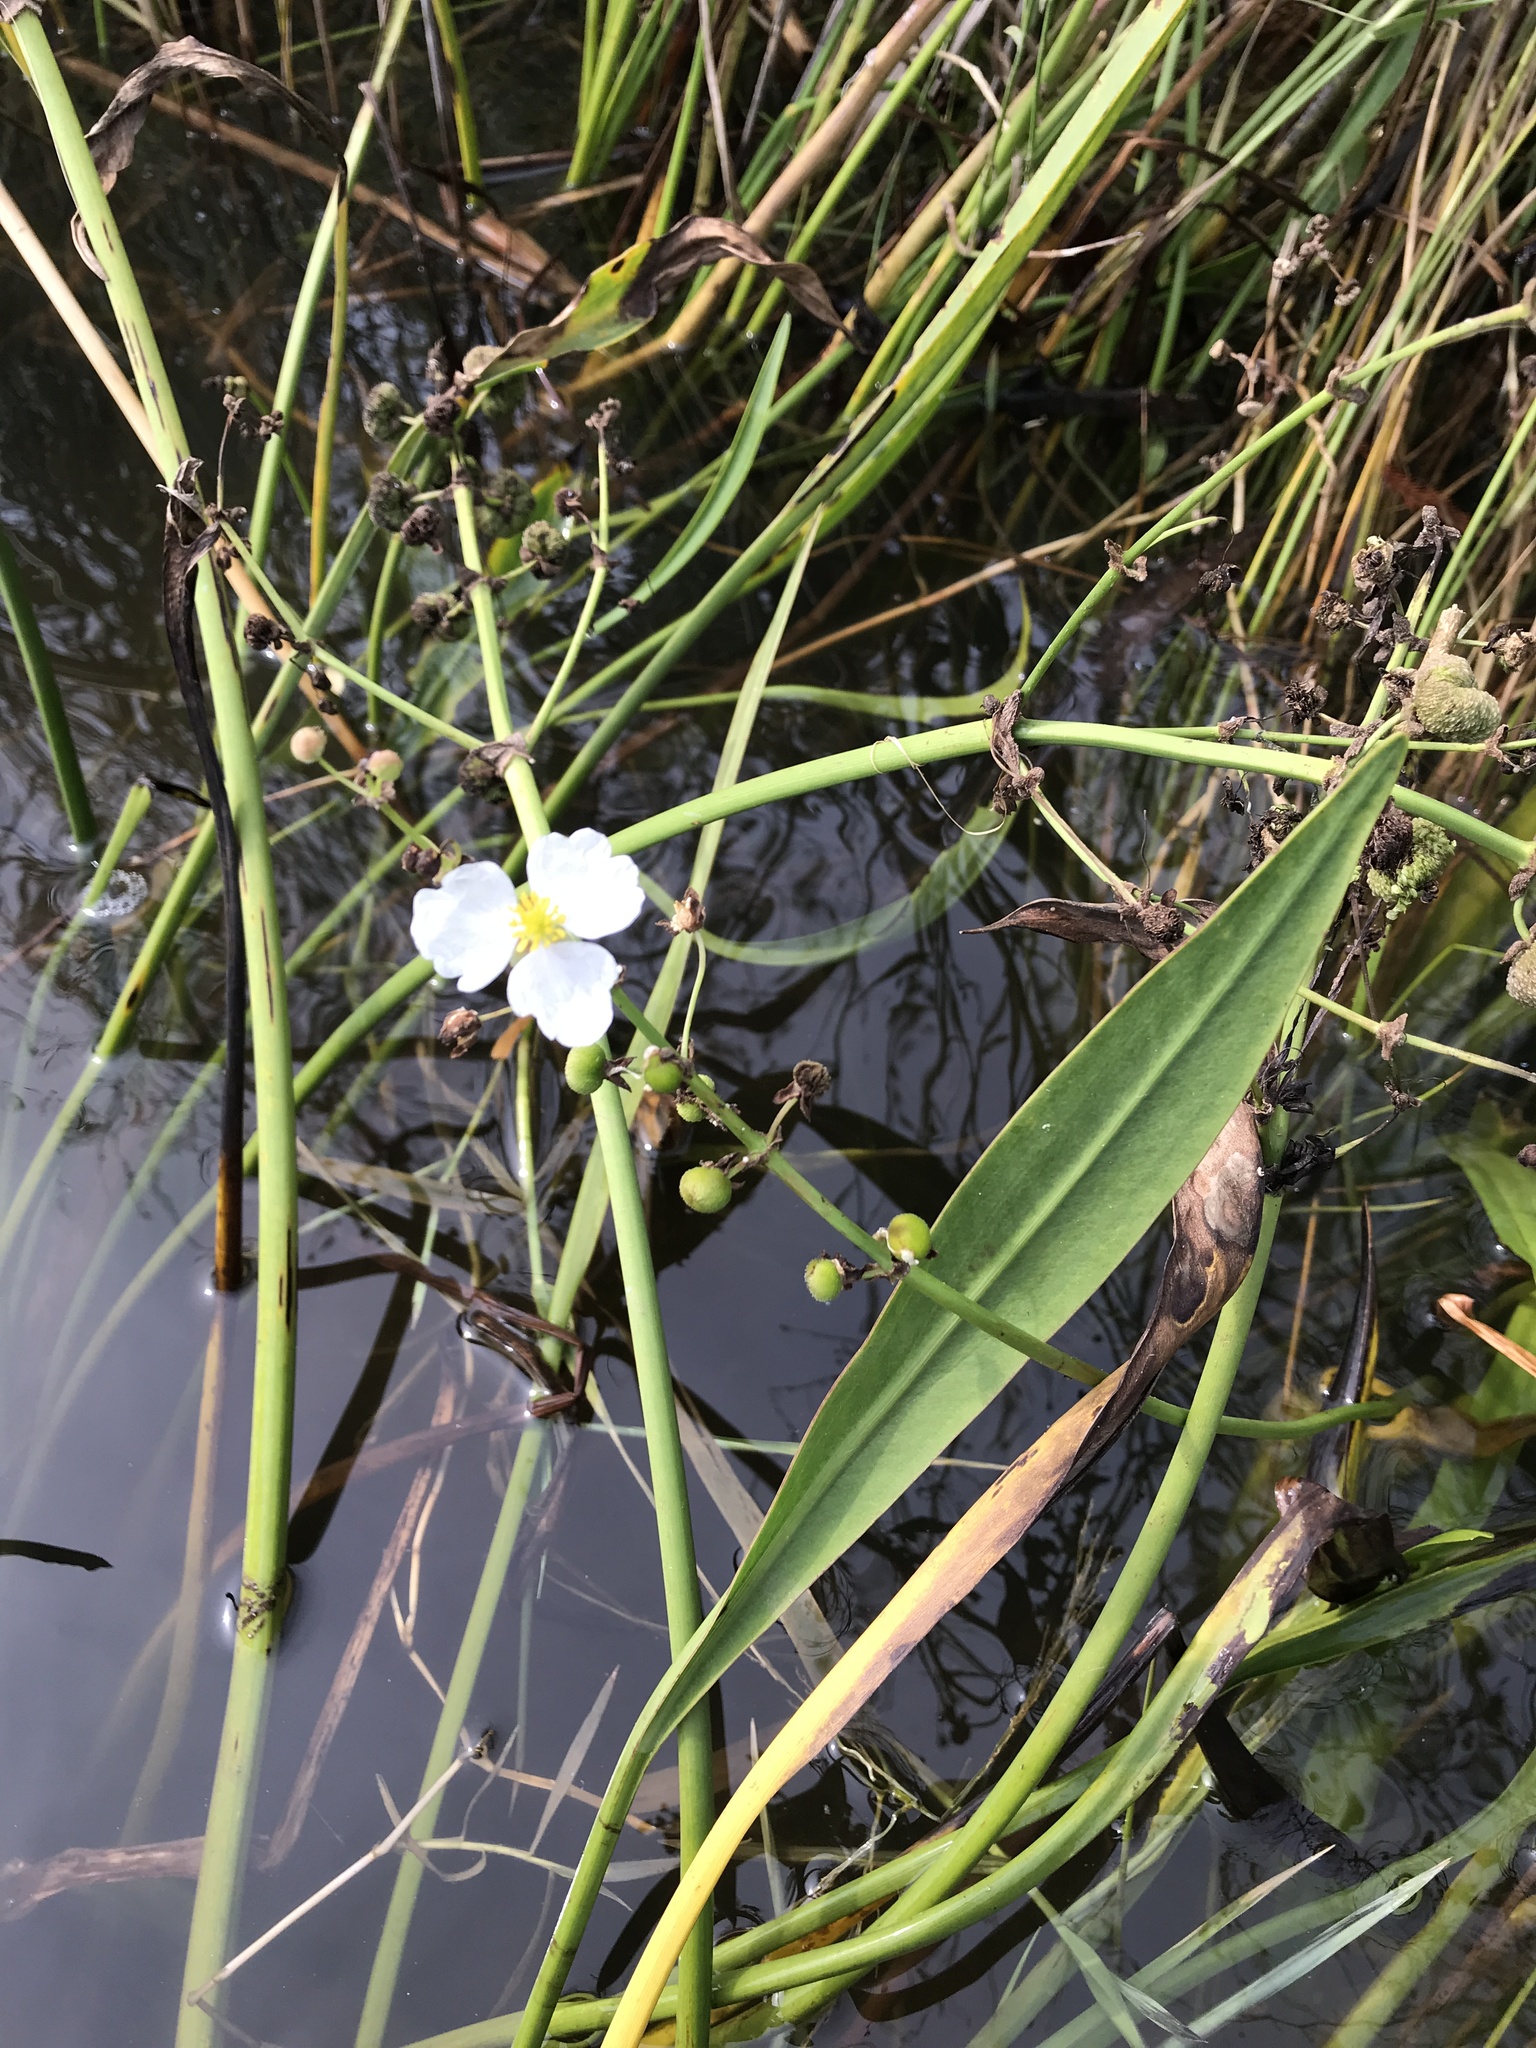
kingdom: Plantae
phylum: Tracheophyta
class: Liliopsida
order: Alismatales
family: Alismataceae
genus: Sagittaria
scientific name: Sagittaria lancifolia
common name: Lance-leaf arrowhead
